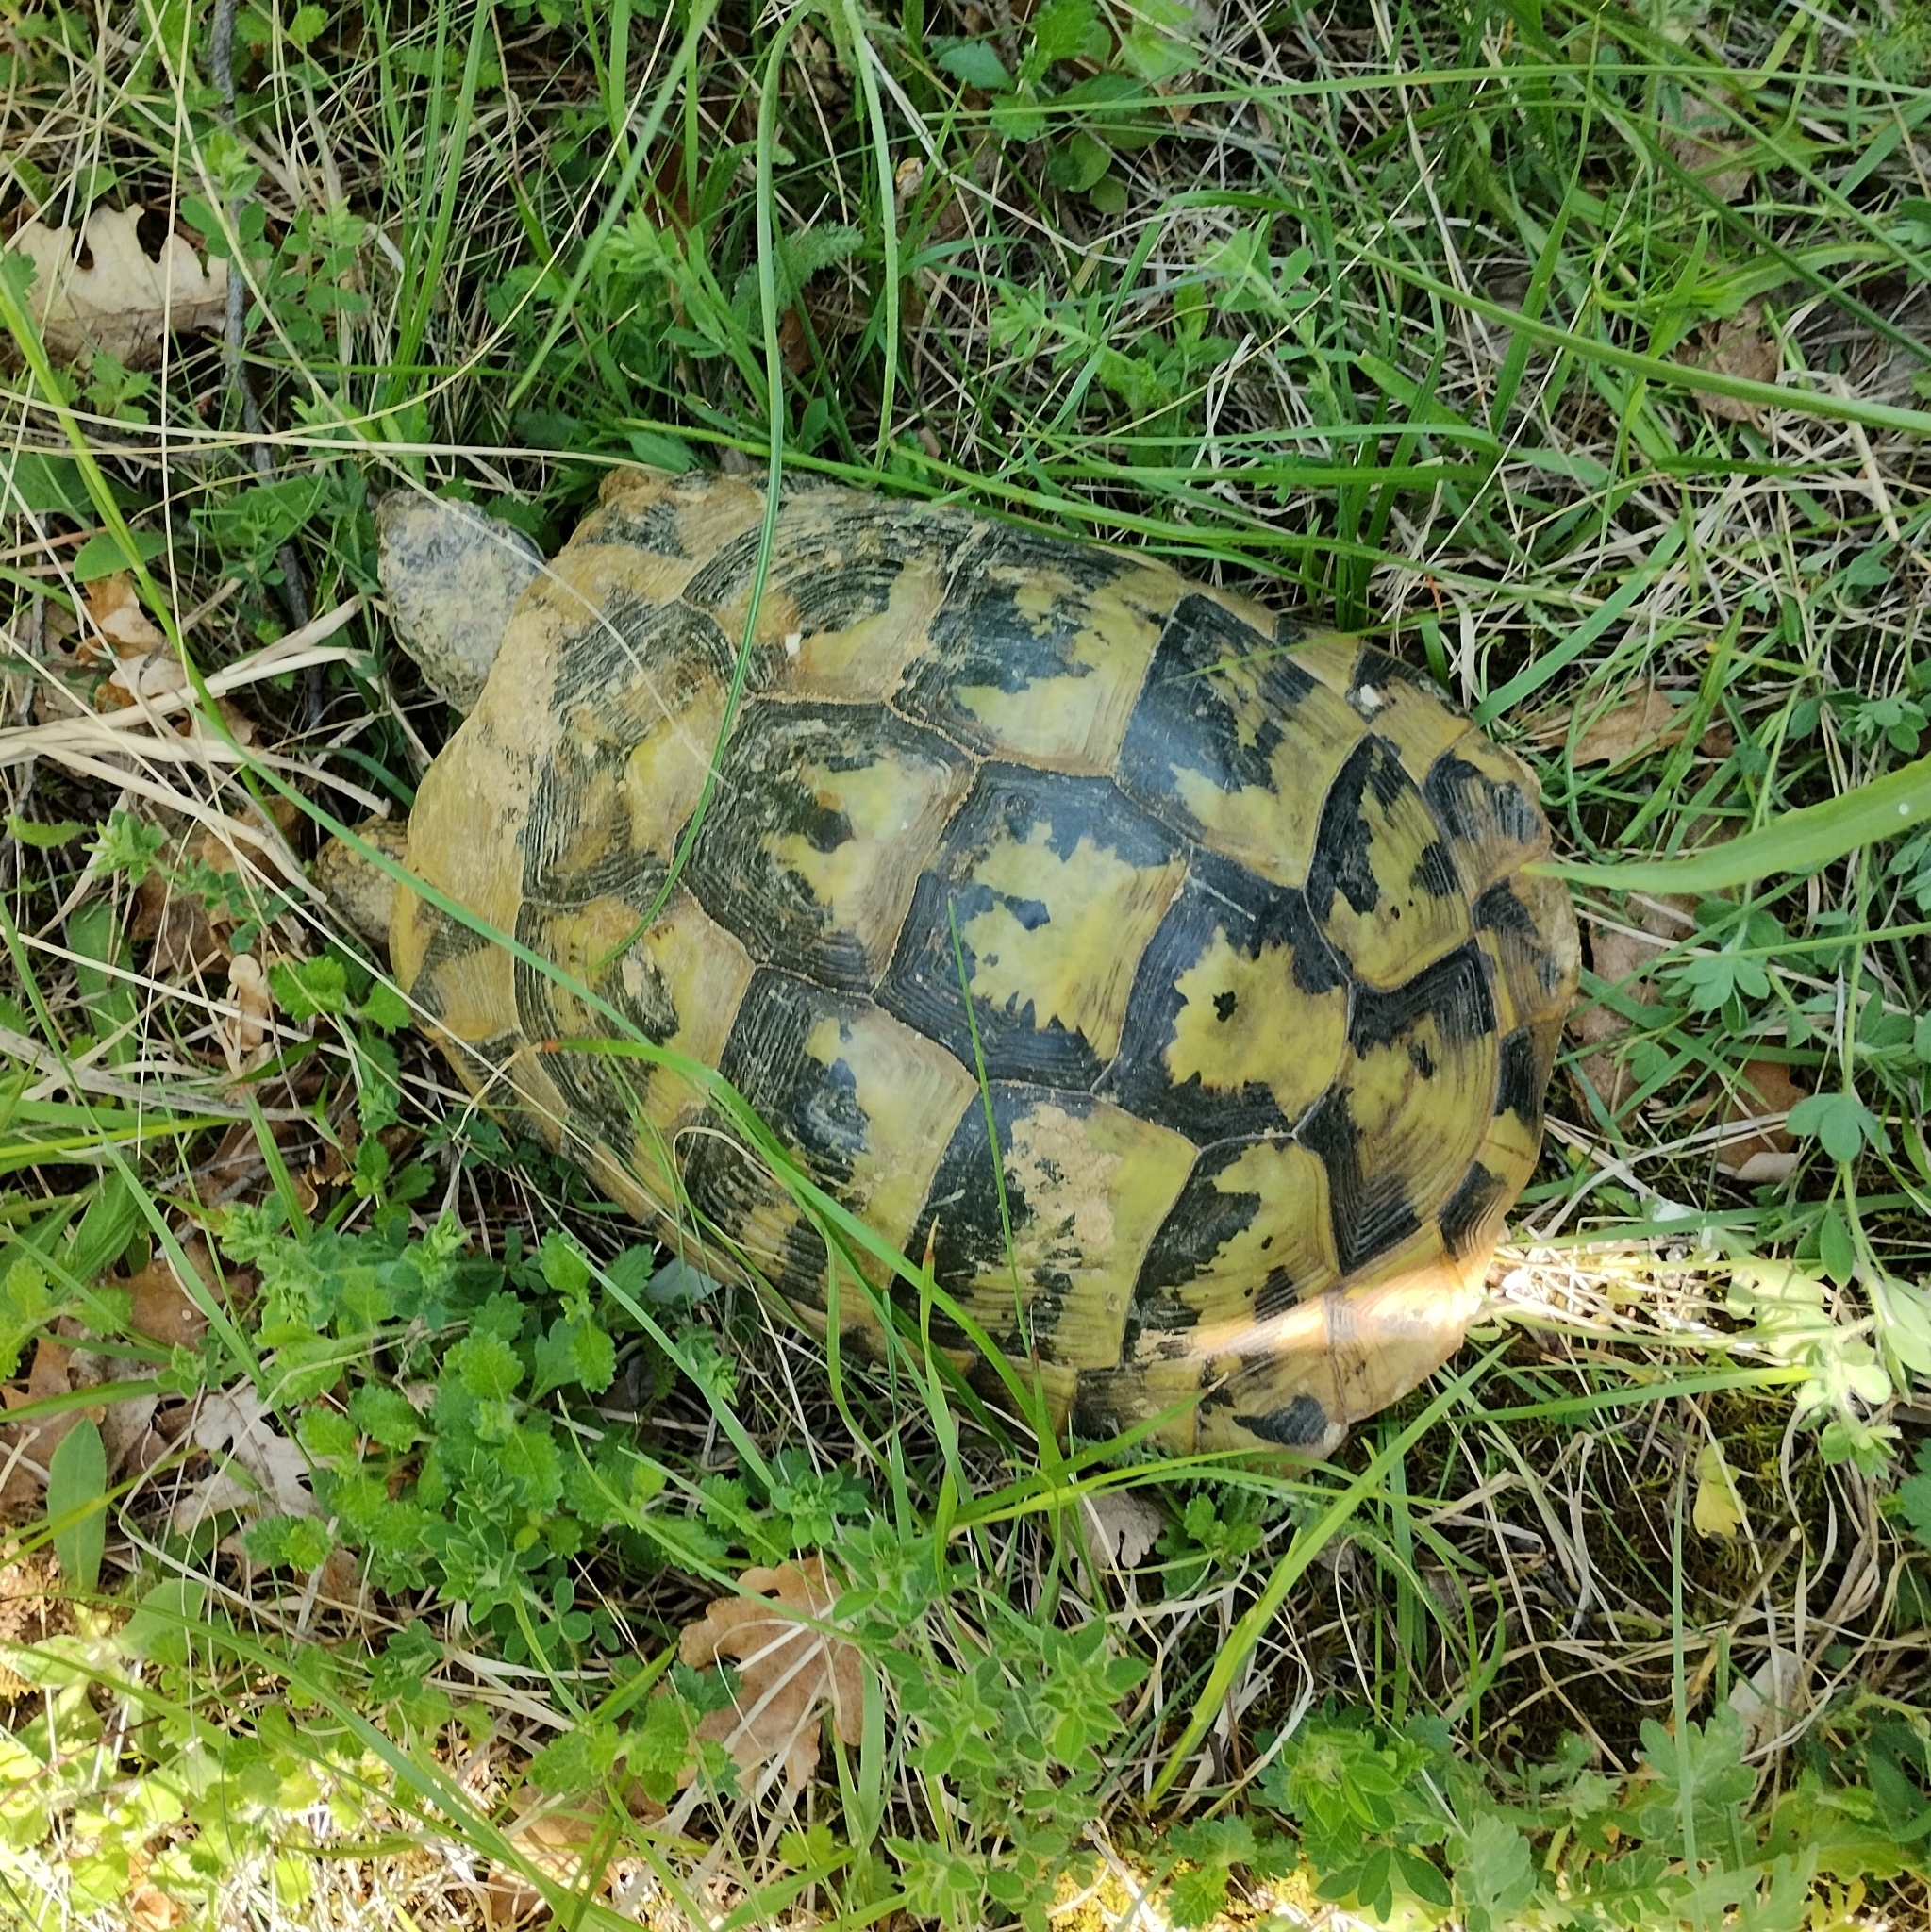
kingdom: Animalia
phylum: Chordata
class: Testudines
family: Testudinidae
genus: Testudo
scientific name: Testudo hermanni
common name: Hermann's tortoise
